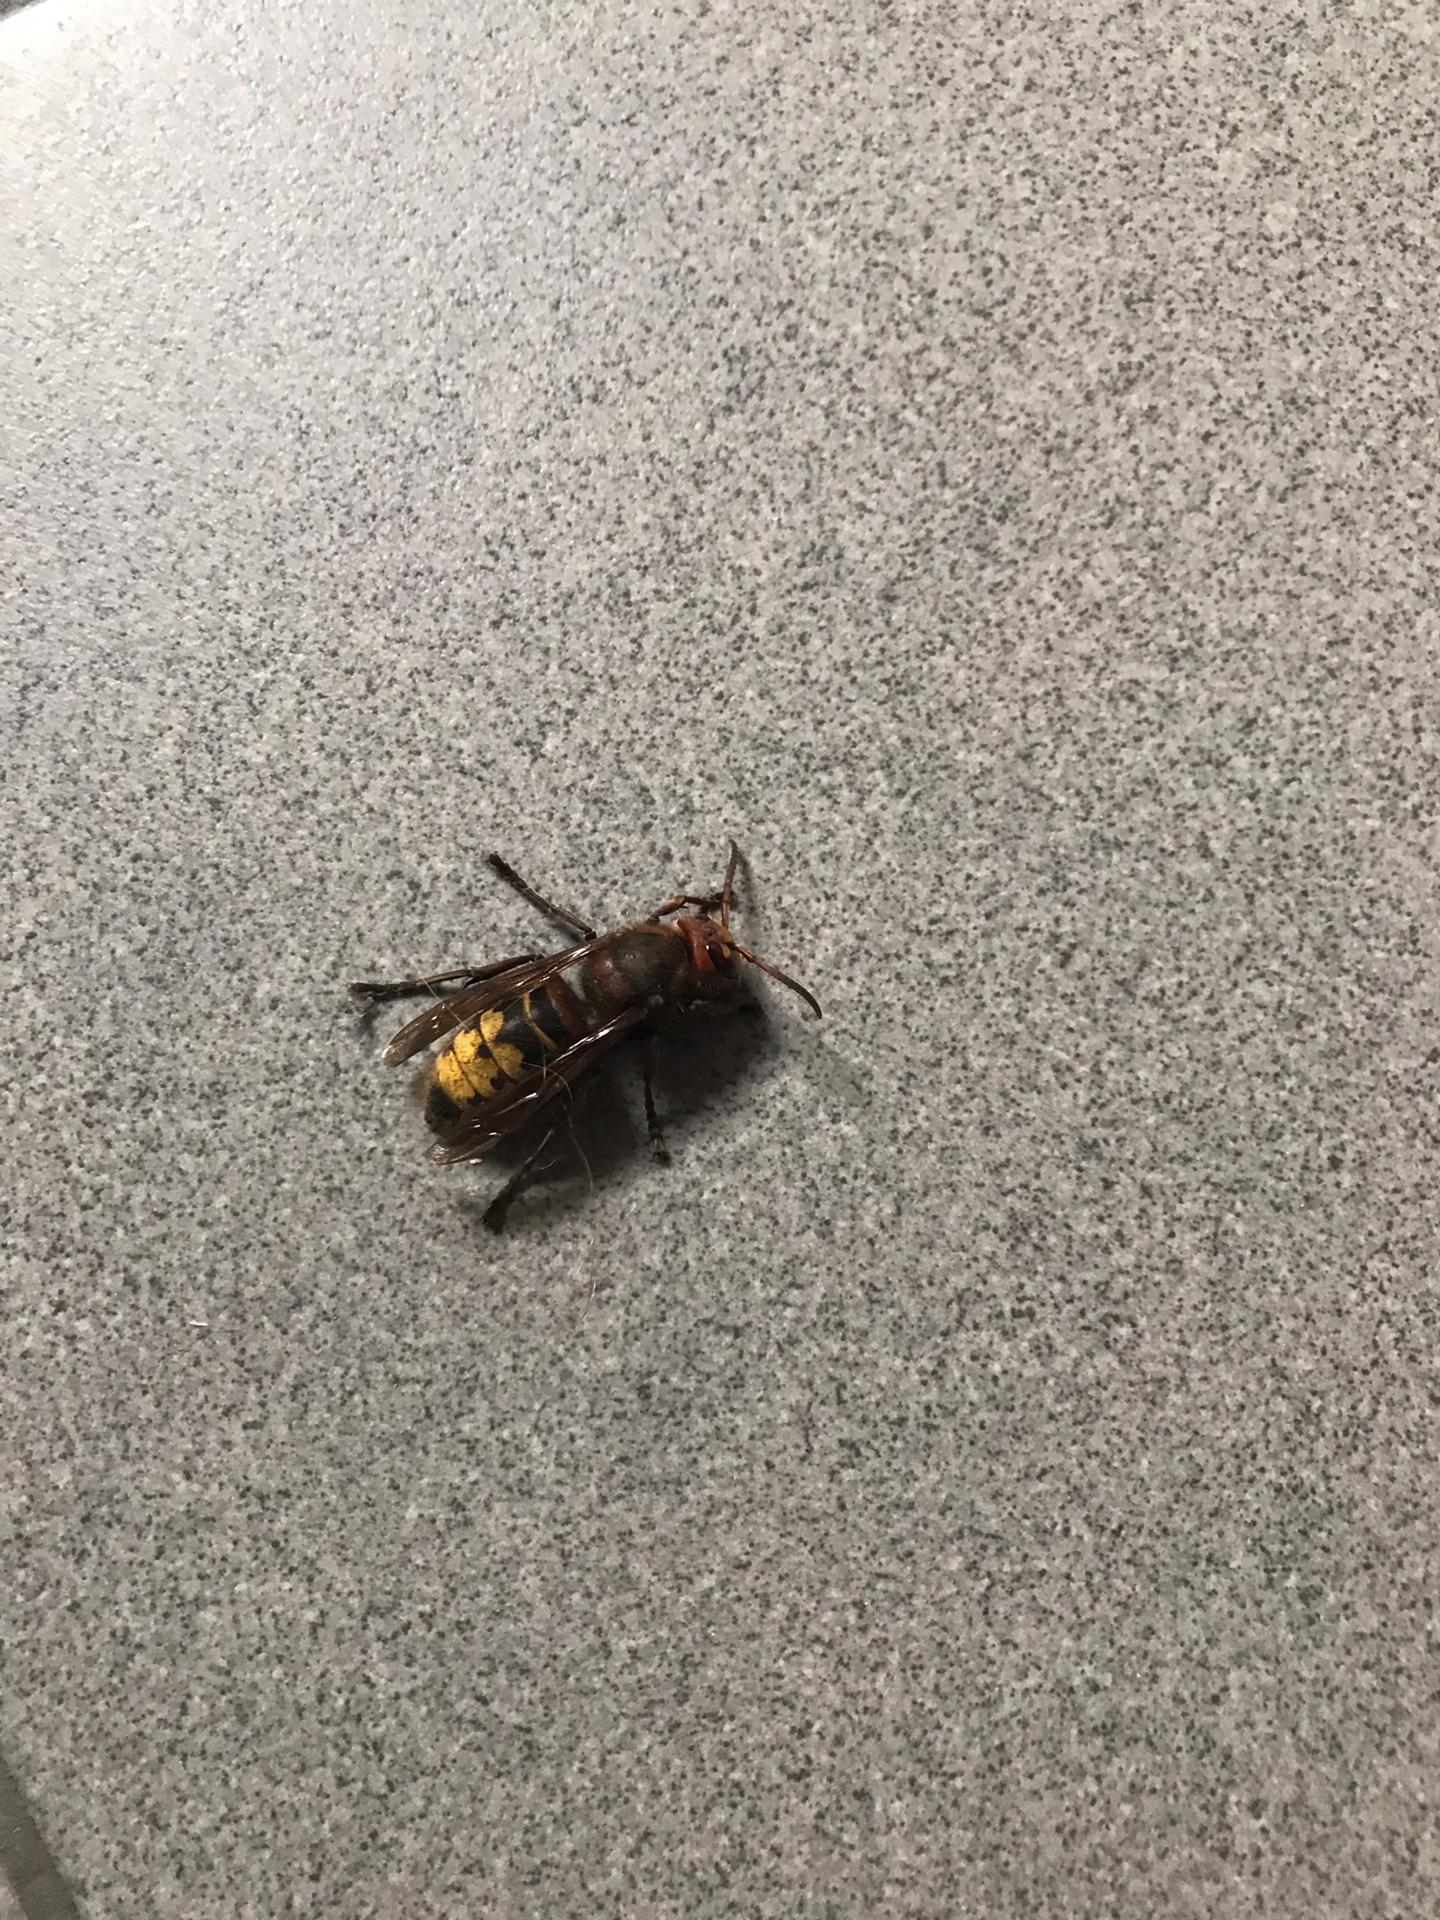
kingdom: Animalia
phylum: Arthropoda
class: Insecta
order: Hymenoptera
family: Vespidae
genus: Vespa
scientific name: Vespa crabro
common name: Hornet
